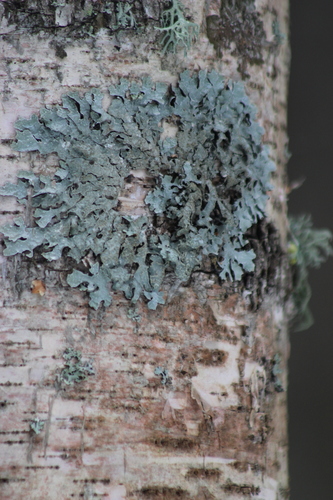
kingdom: Fungi
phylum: Ascomycota
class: Lecanoromycetes
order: Lecanorales
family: Parmeliaceae
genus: Parmelia
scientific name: Parmelia
